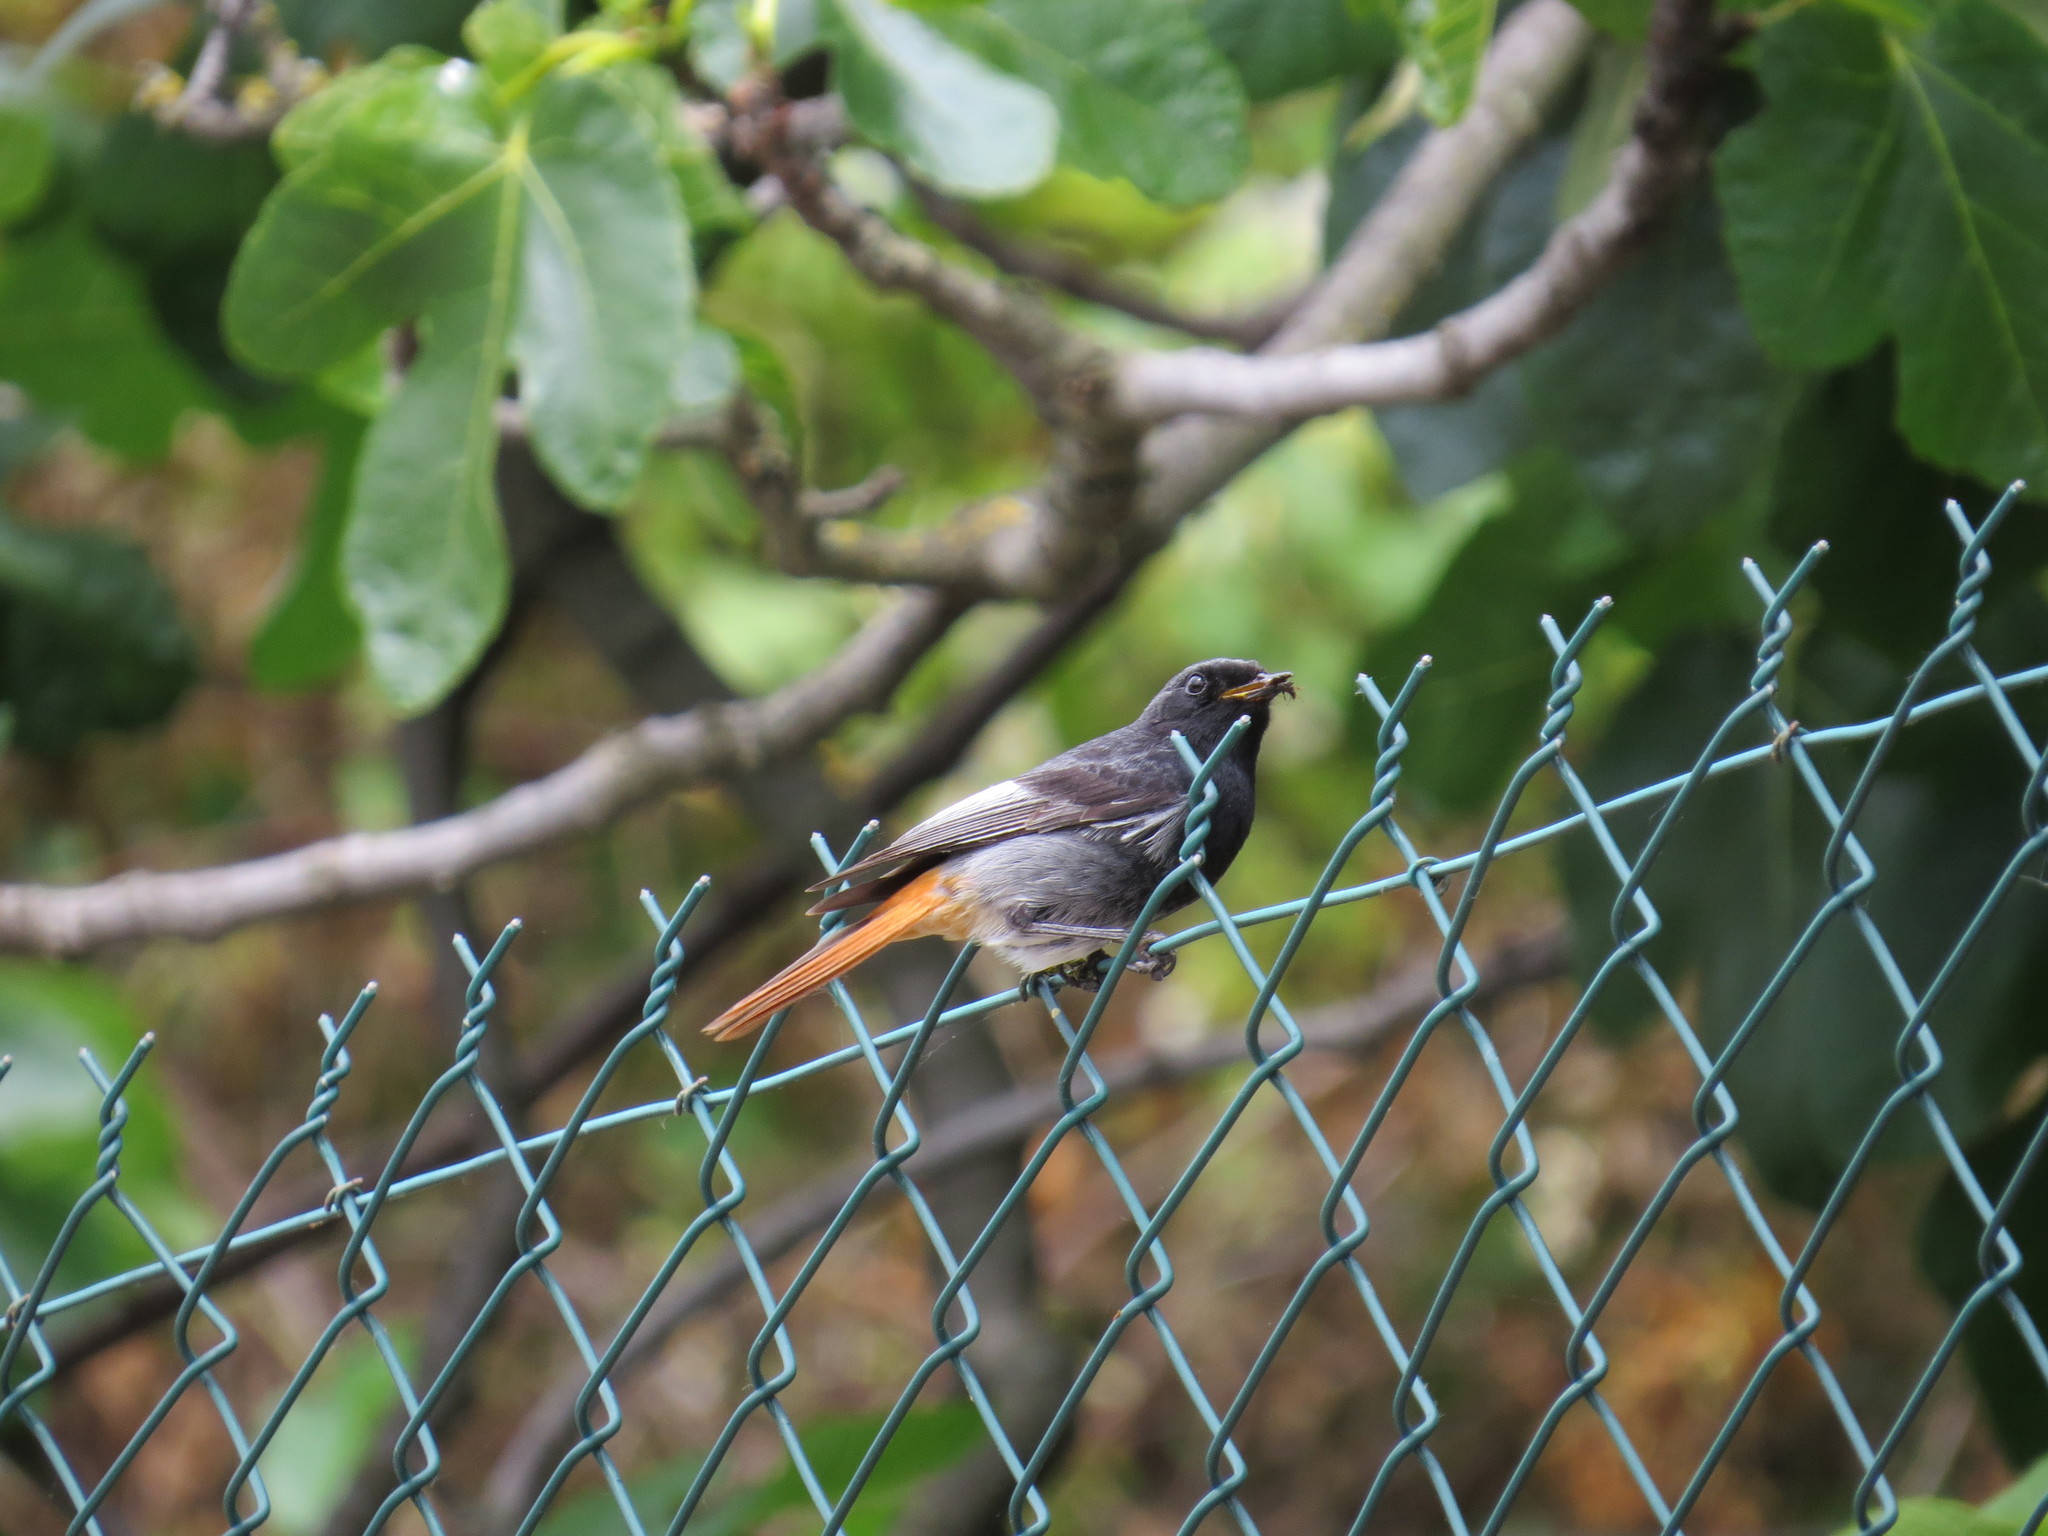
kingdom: Animalia
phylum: Chordata
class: Aves
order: Passeriformes
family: Muscicapidae
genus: Phoenicurus
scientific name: Phoenicurus ochruros
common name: Black redstart
